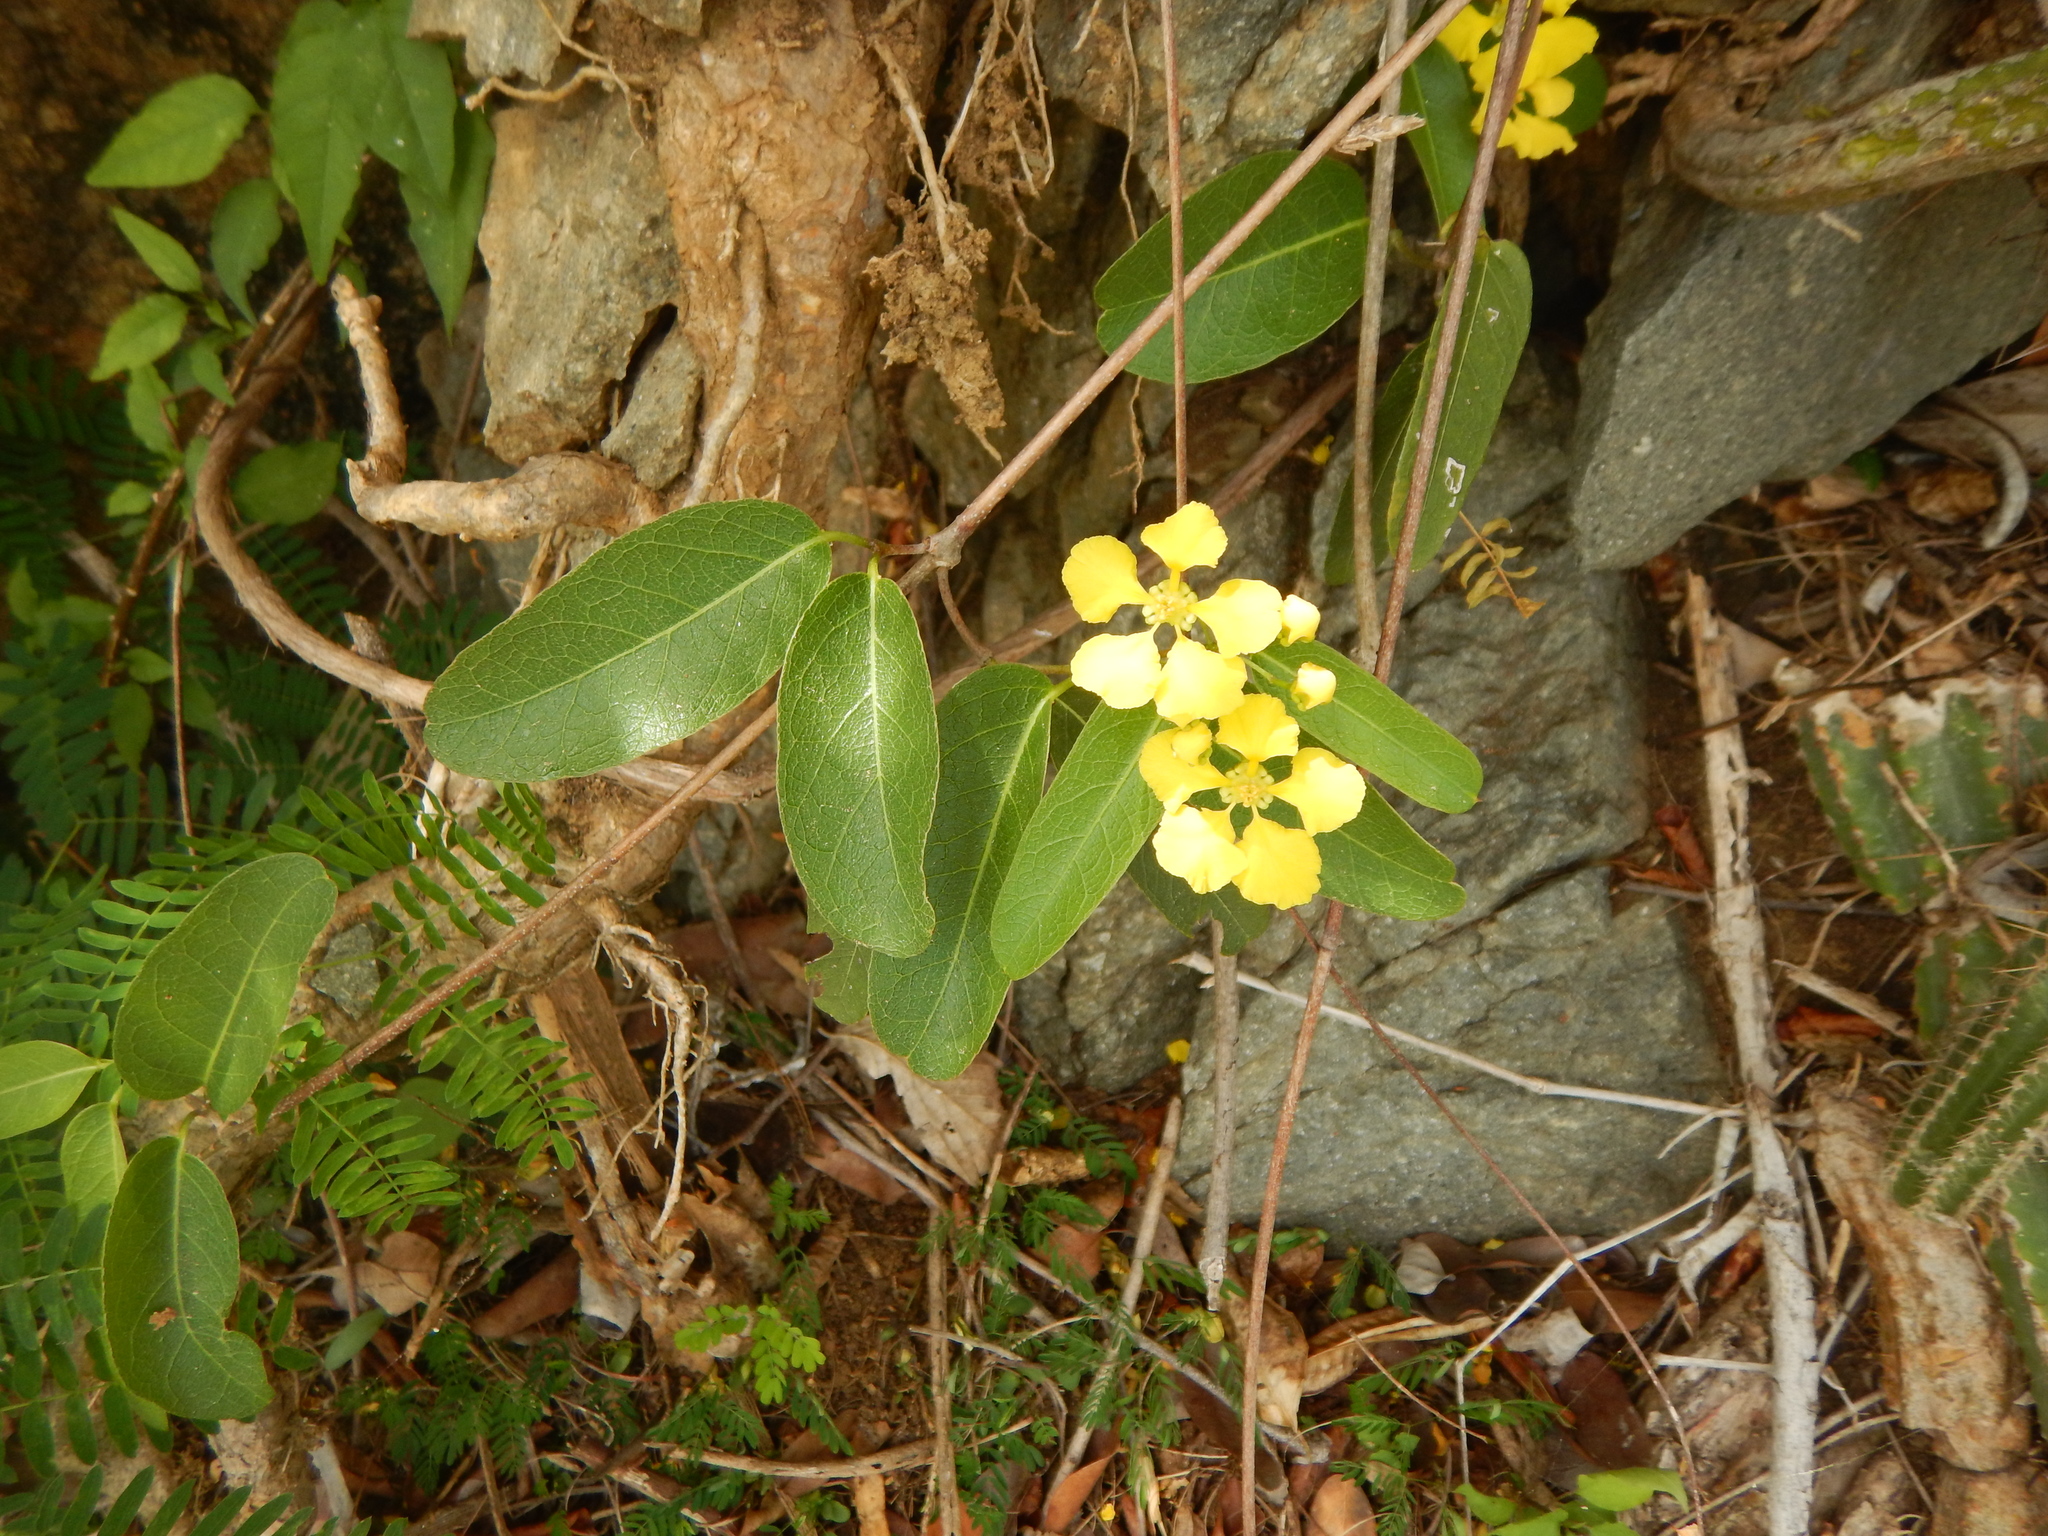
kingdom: Plantae
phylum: Tracheophyta
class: Magnoliopsida
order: Malpighiales
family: Malpighiaceae
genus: Stigmaphyllon
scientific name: Stigmaphyllon emarginatum
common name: Monarch amazonvine
